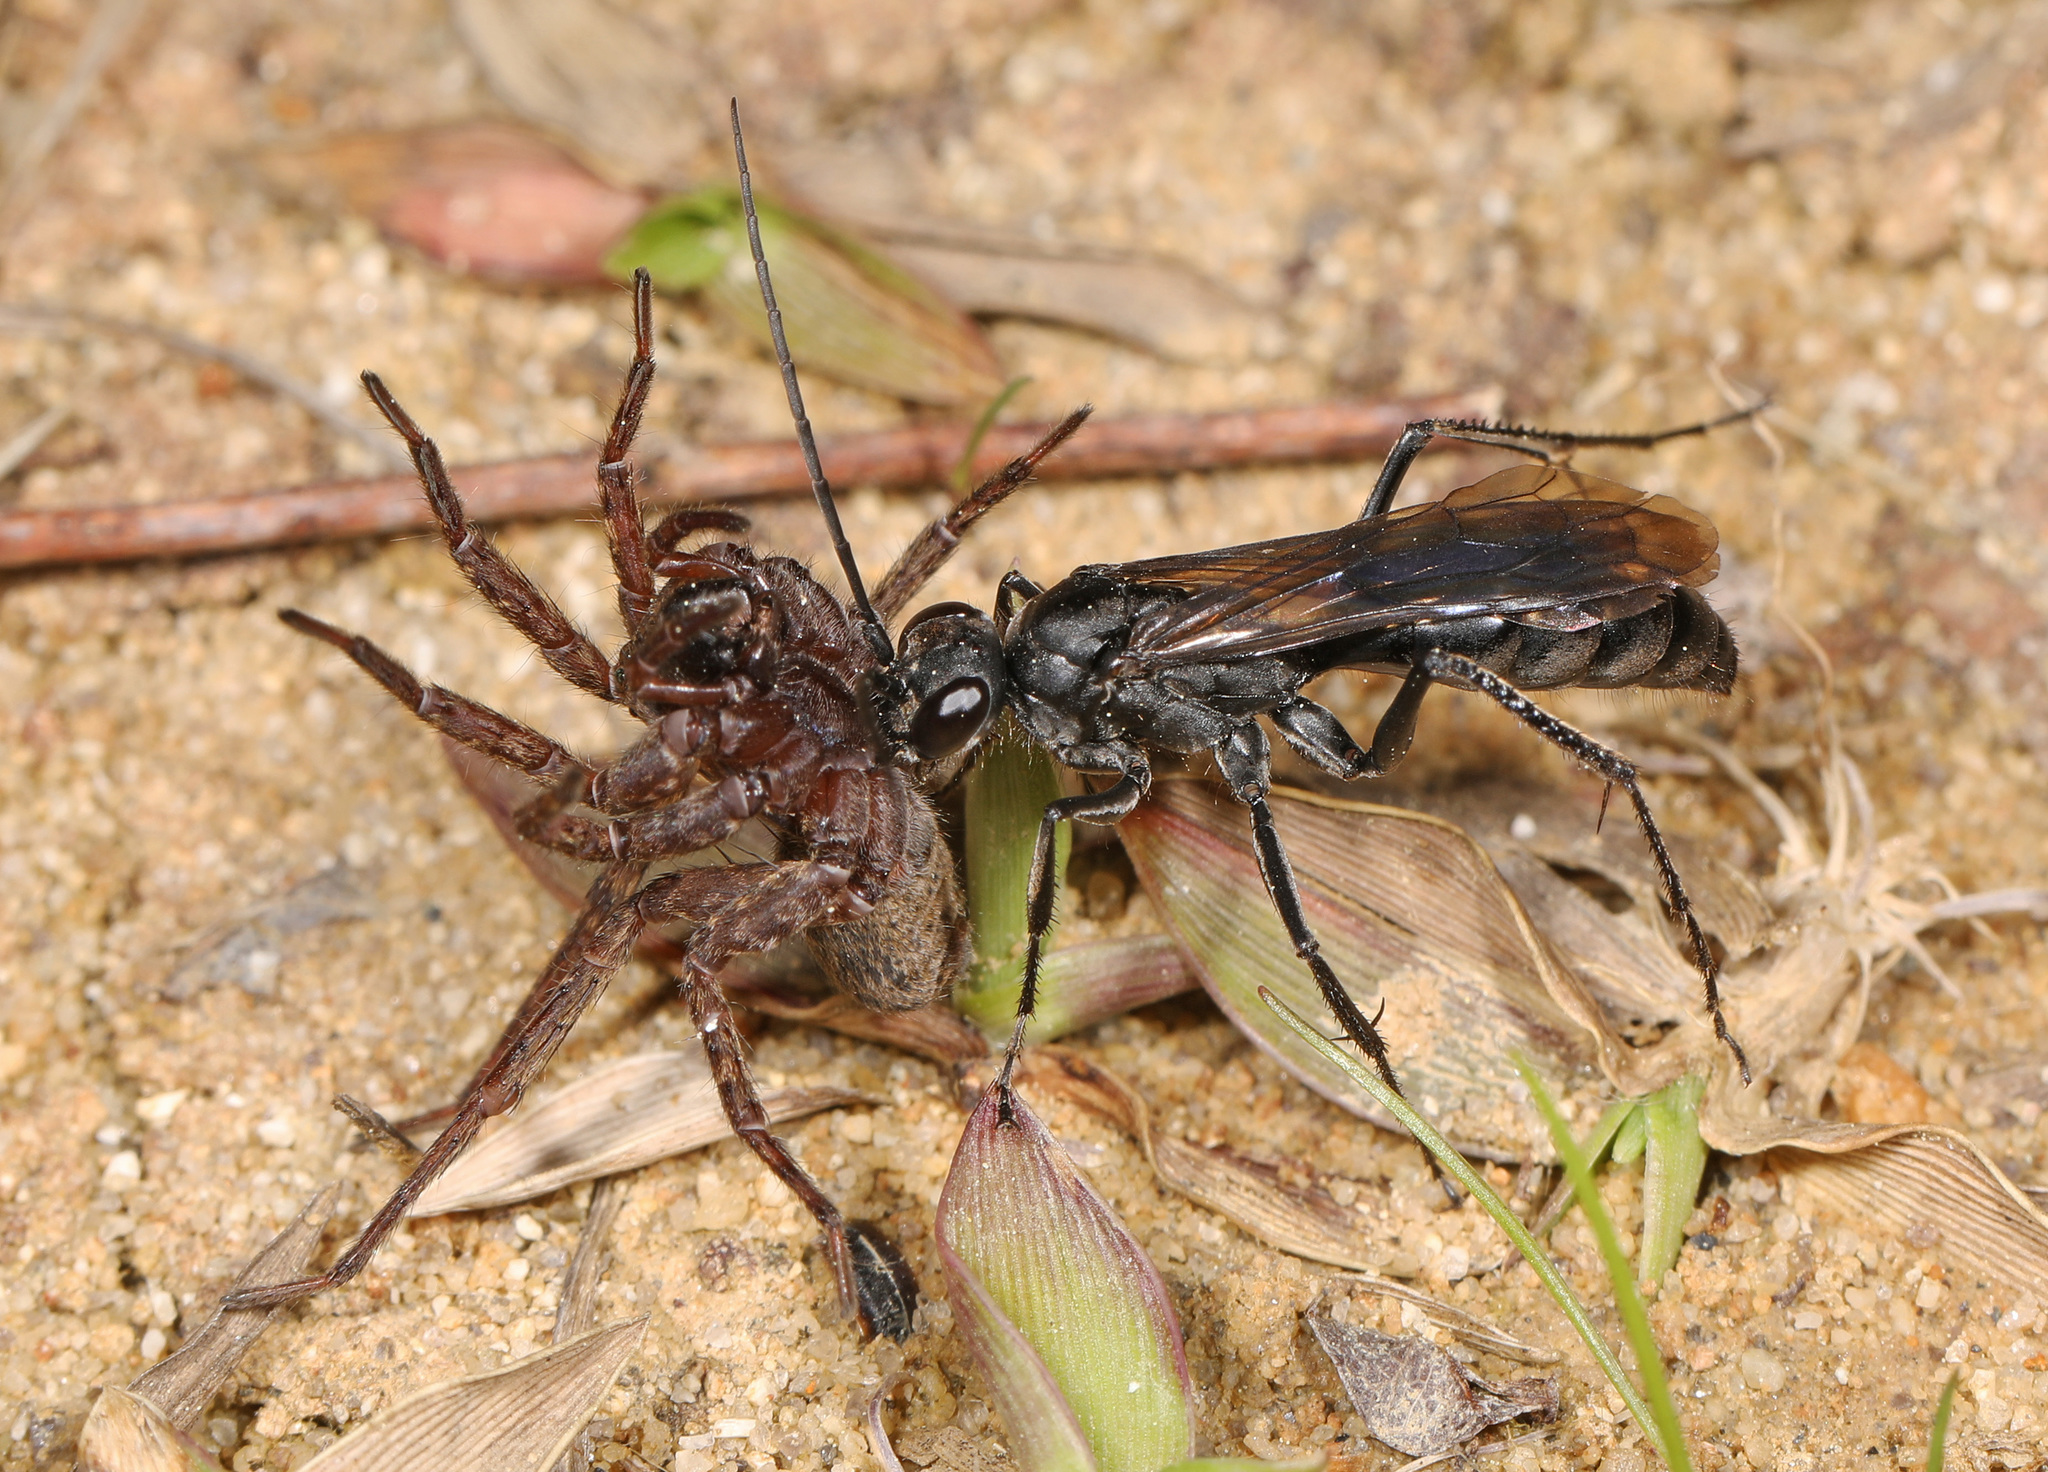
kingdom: Animalia
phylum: Arthropoda
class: Insecta
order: Hymenoptera
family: Pompilidae
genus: Priocnemis
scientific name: Priocnemis minorata
